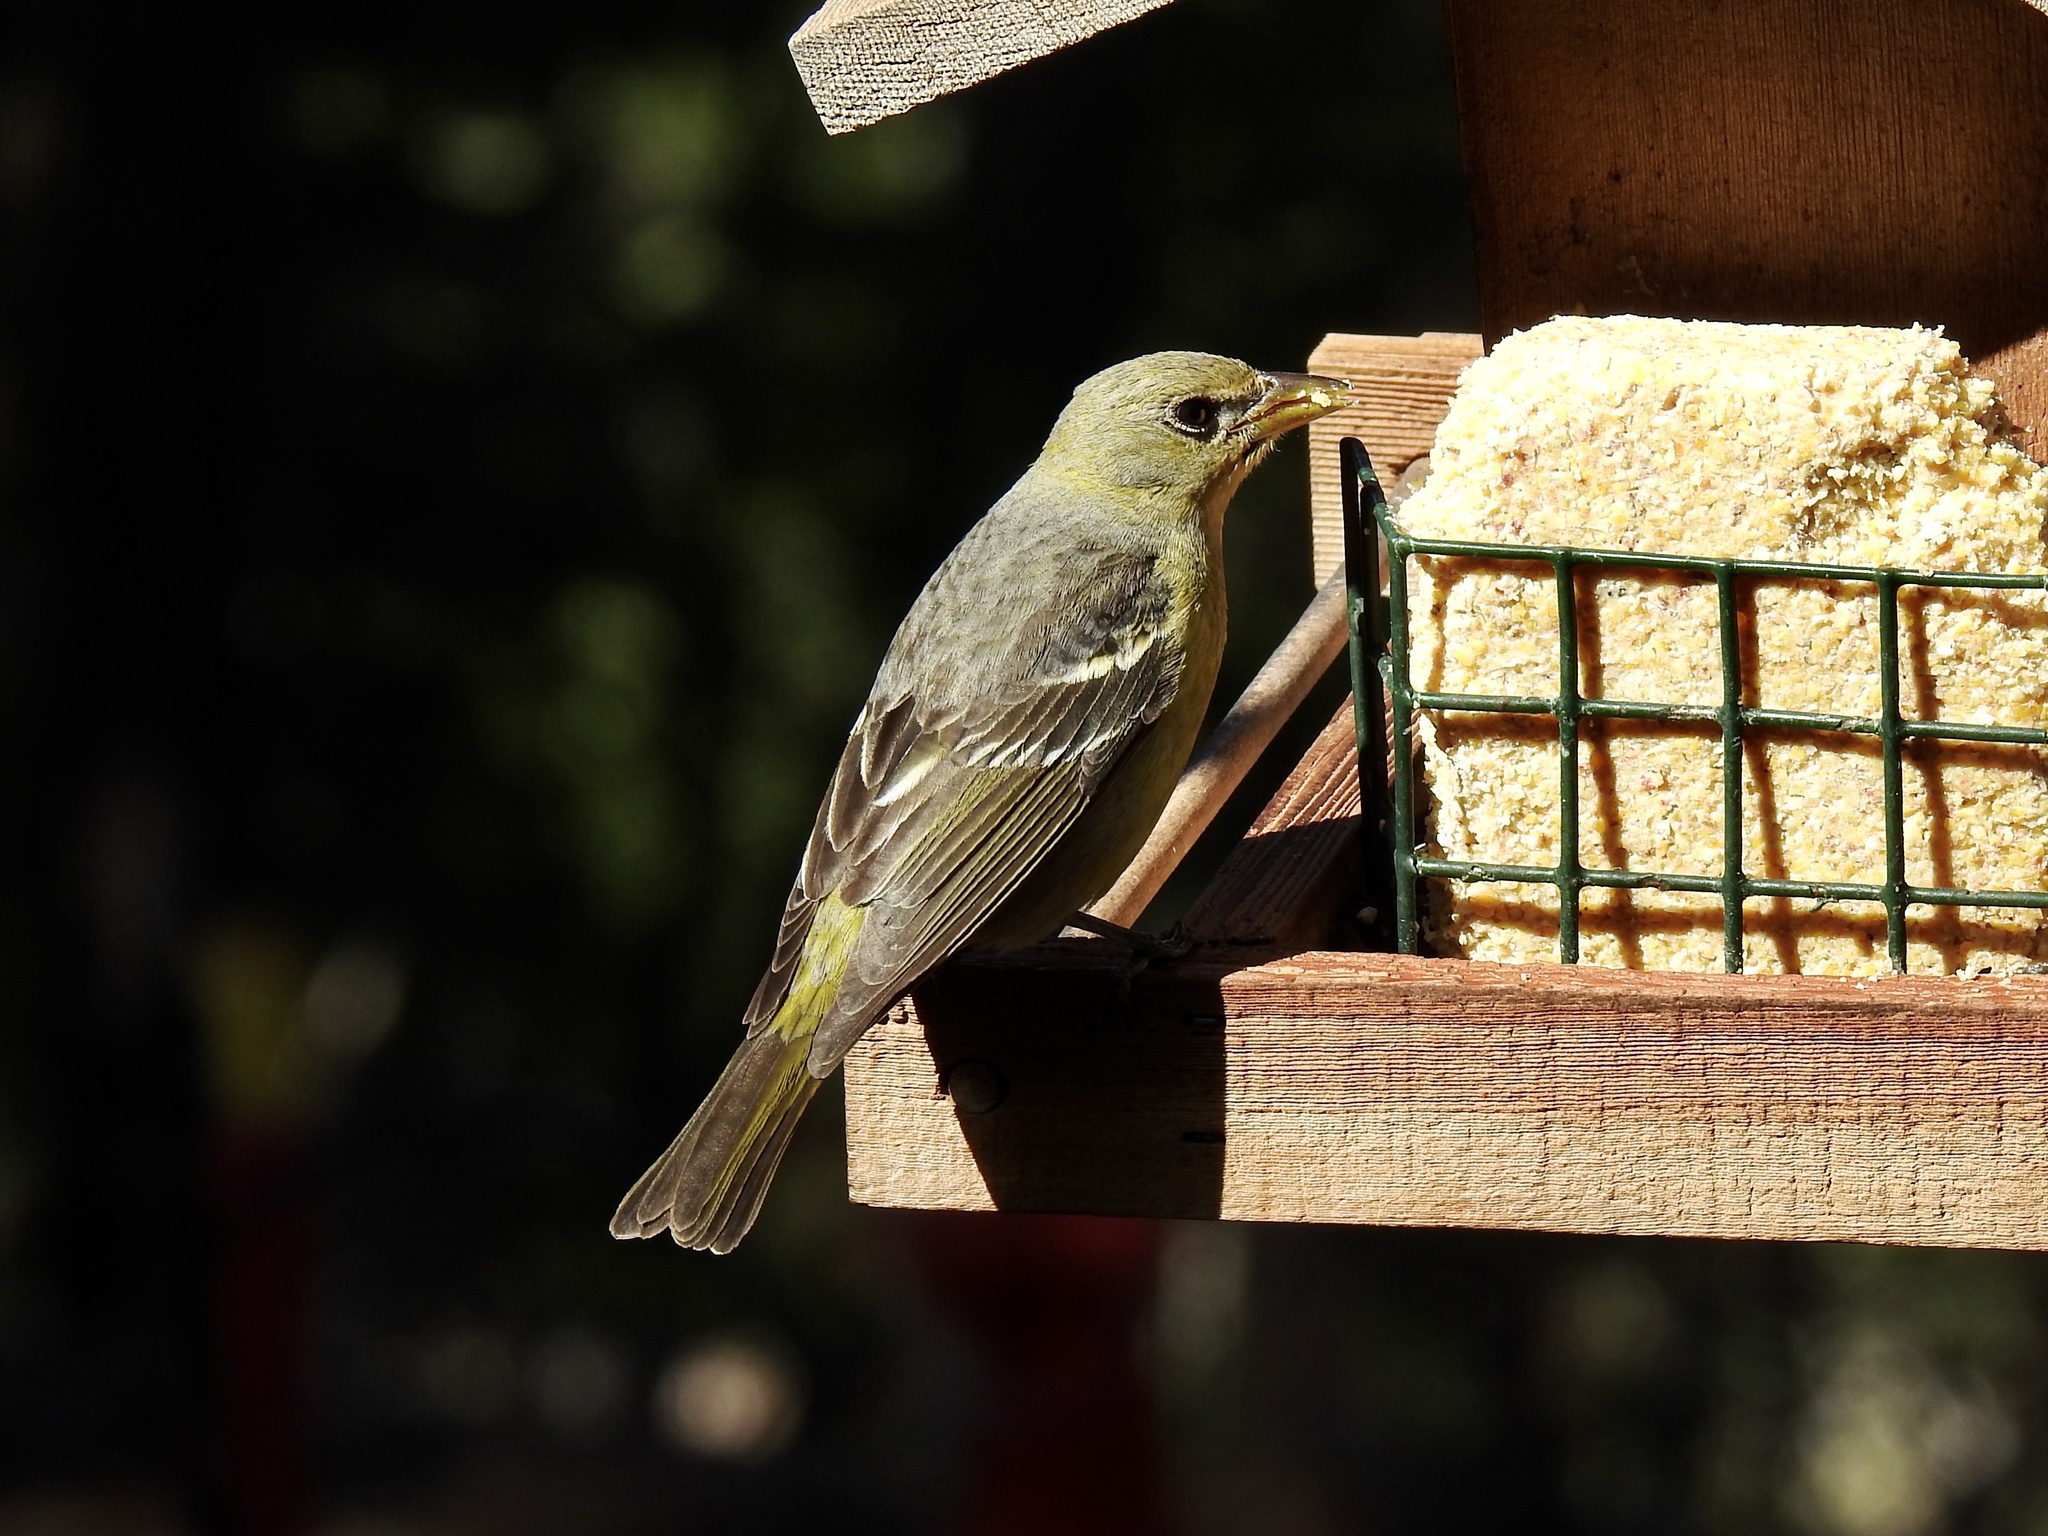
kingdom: Animalia
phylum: Chordata
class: Aves
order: Passeriformes
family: Cardinalidae
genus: Piranga
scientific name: Piranga ludoviciana
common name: Western tanager
